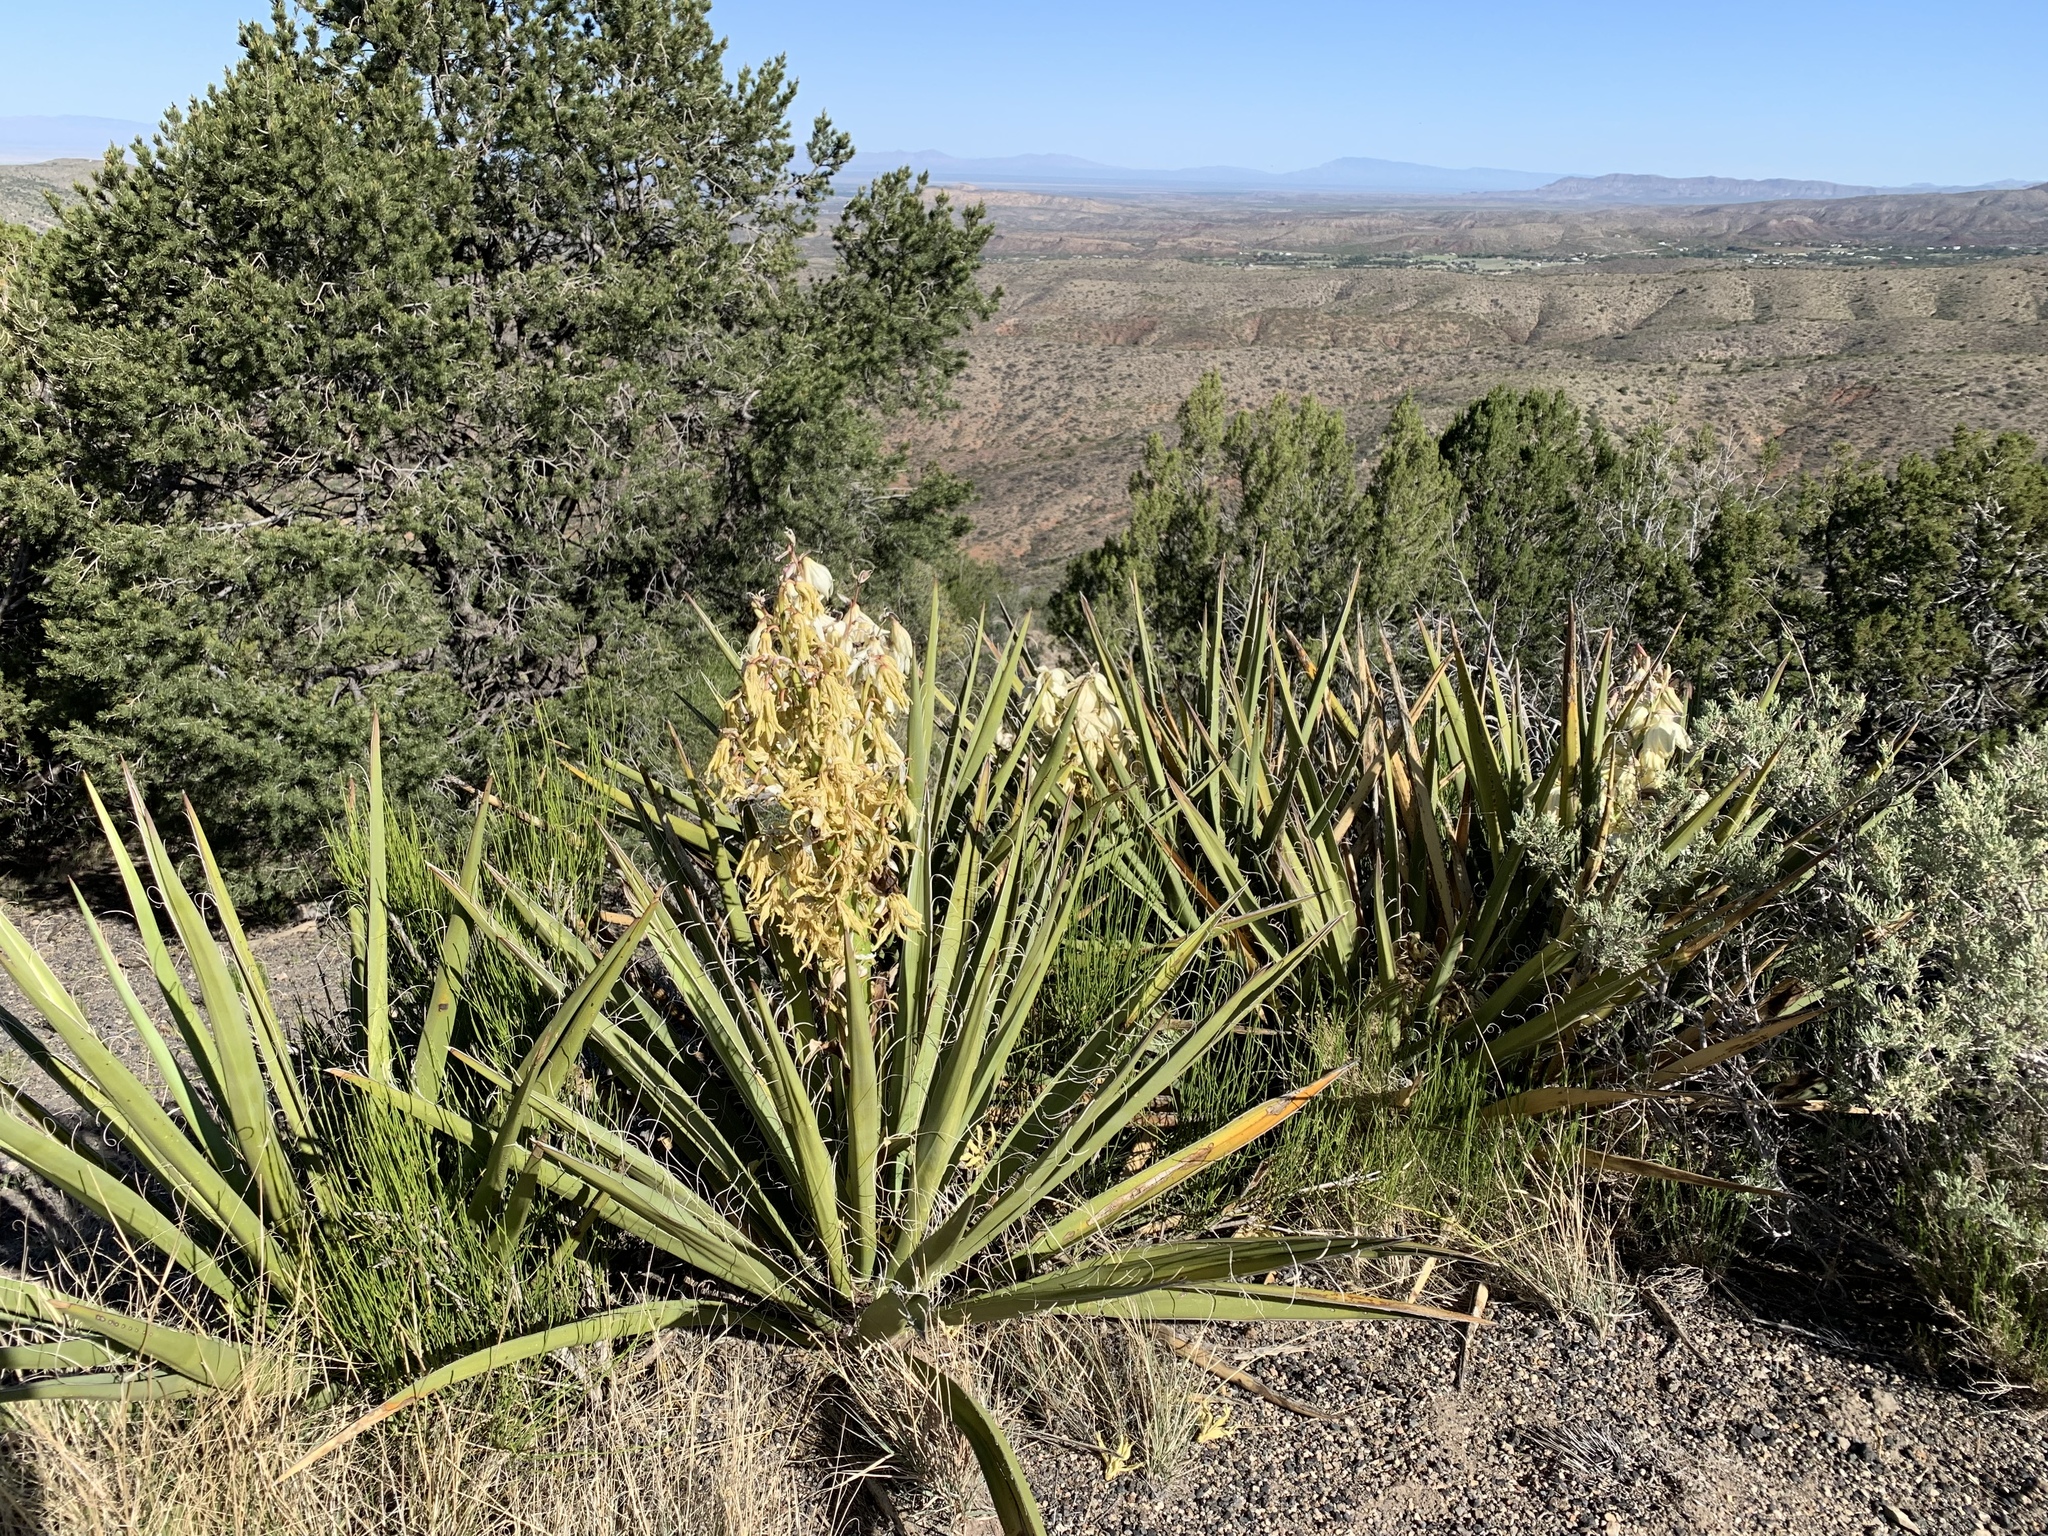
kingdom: Plantae
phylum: Tracheophyta
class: Liliopsida
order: Asparagales
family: Asparagaceae
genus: Yucca
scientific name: Yucca baccata
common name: Banana yucca
